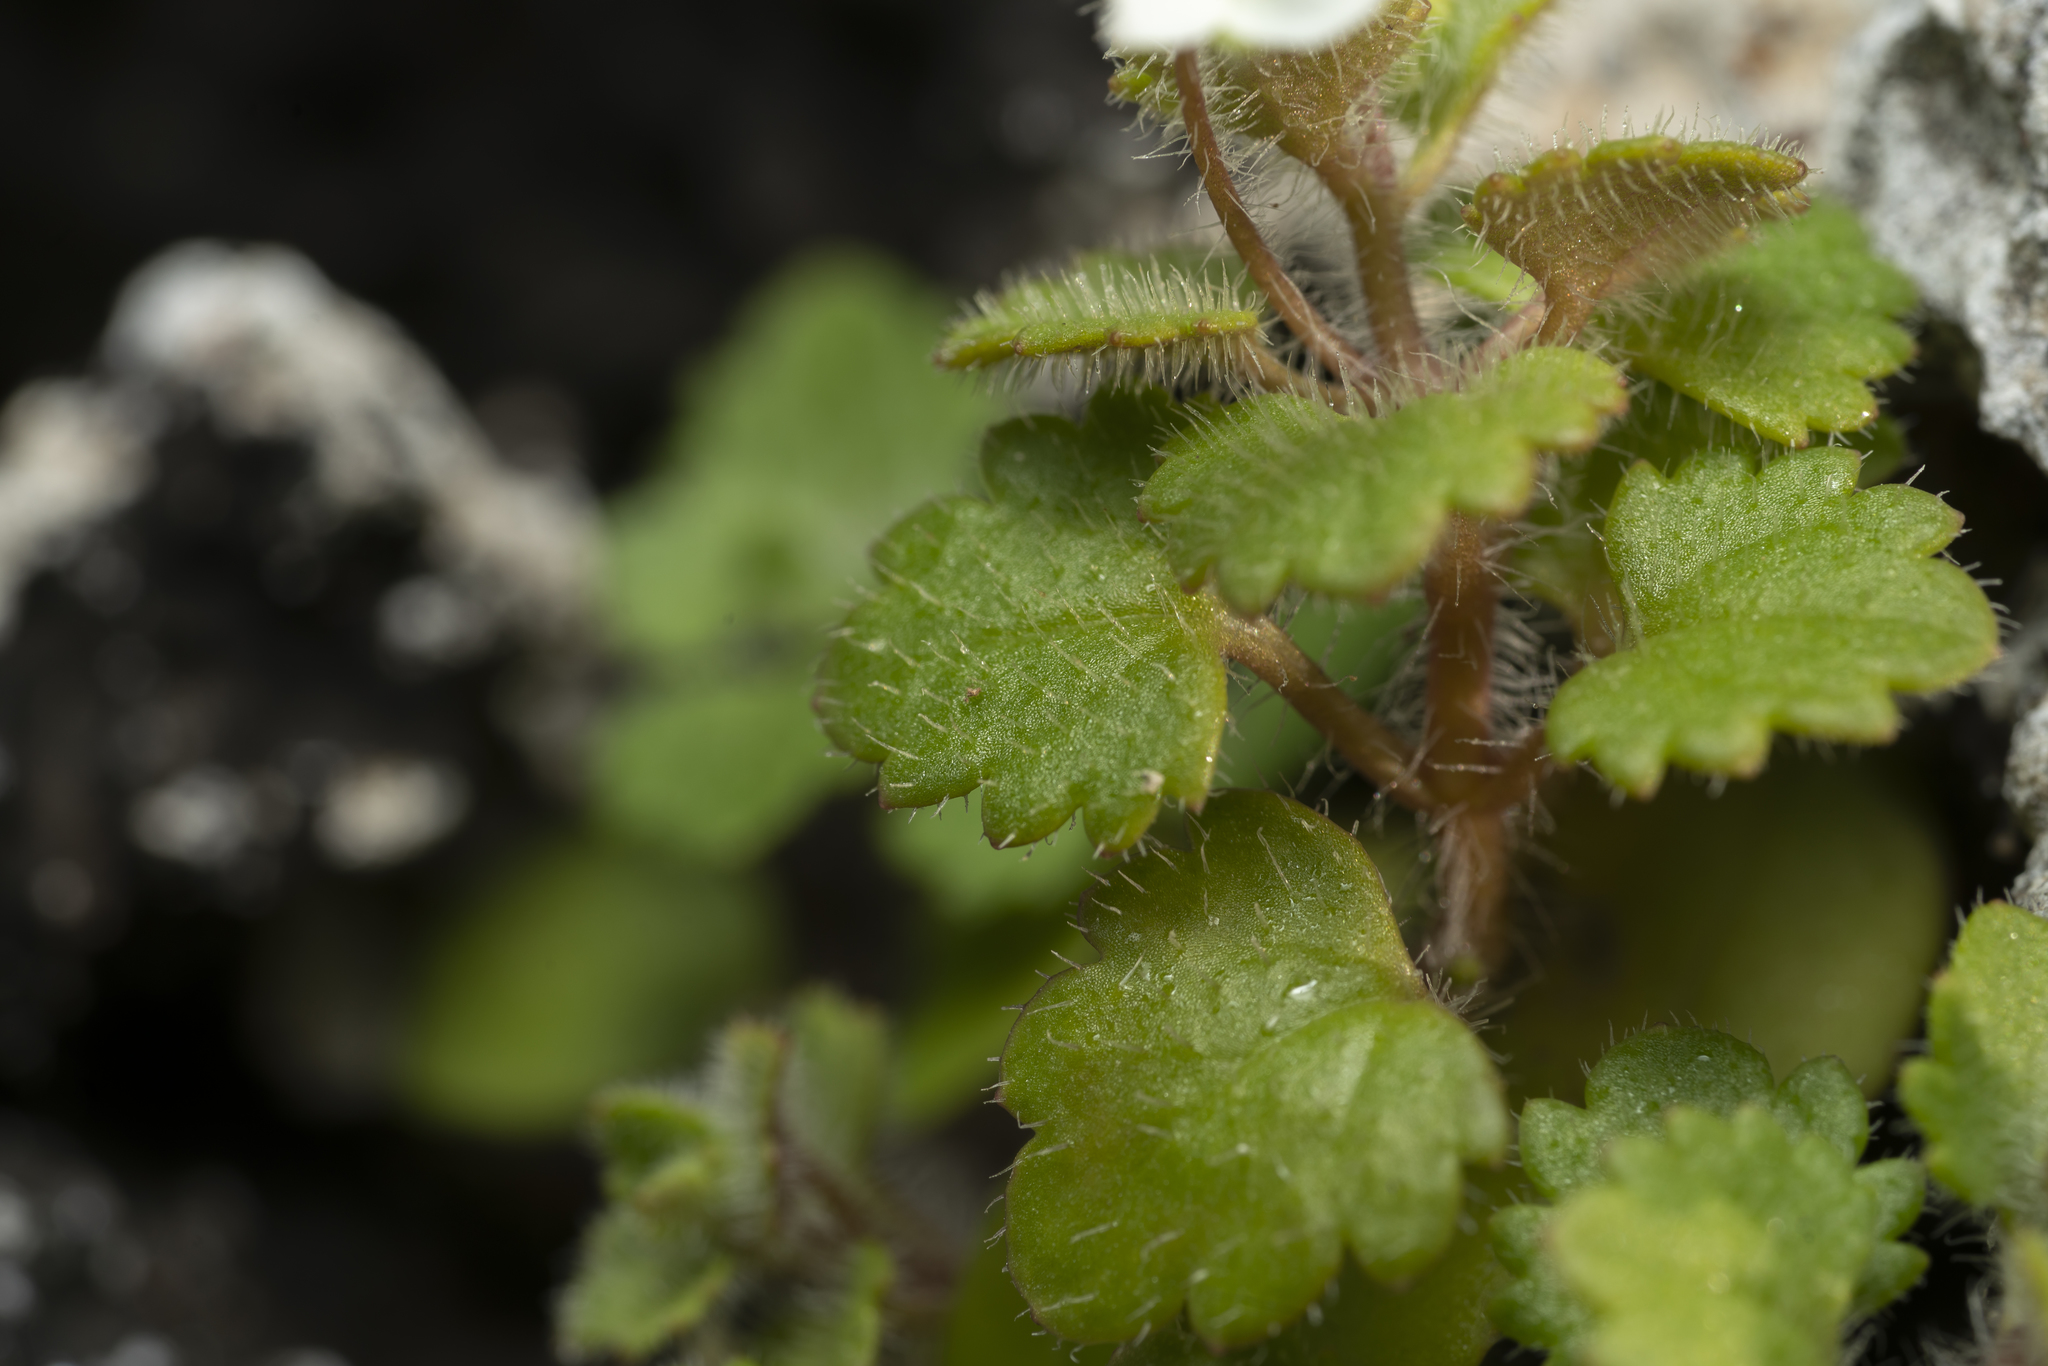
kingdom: Plantae
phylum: Tracheophyta
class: Magnoliopsida
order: Lamiales
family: Plantaginaceae
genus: Veronica
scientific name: Veronica cymbalaria
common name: Pale speedwell
